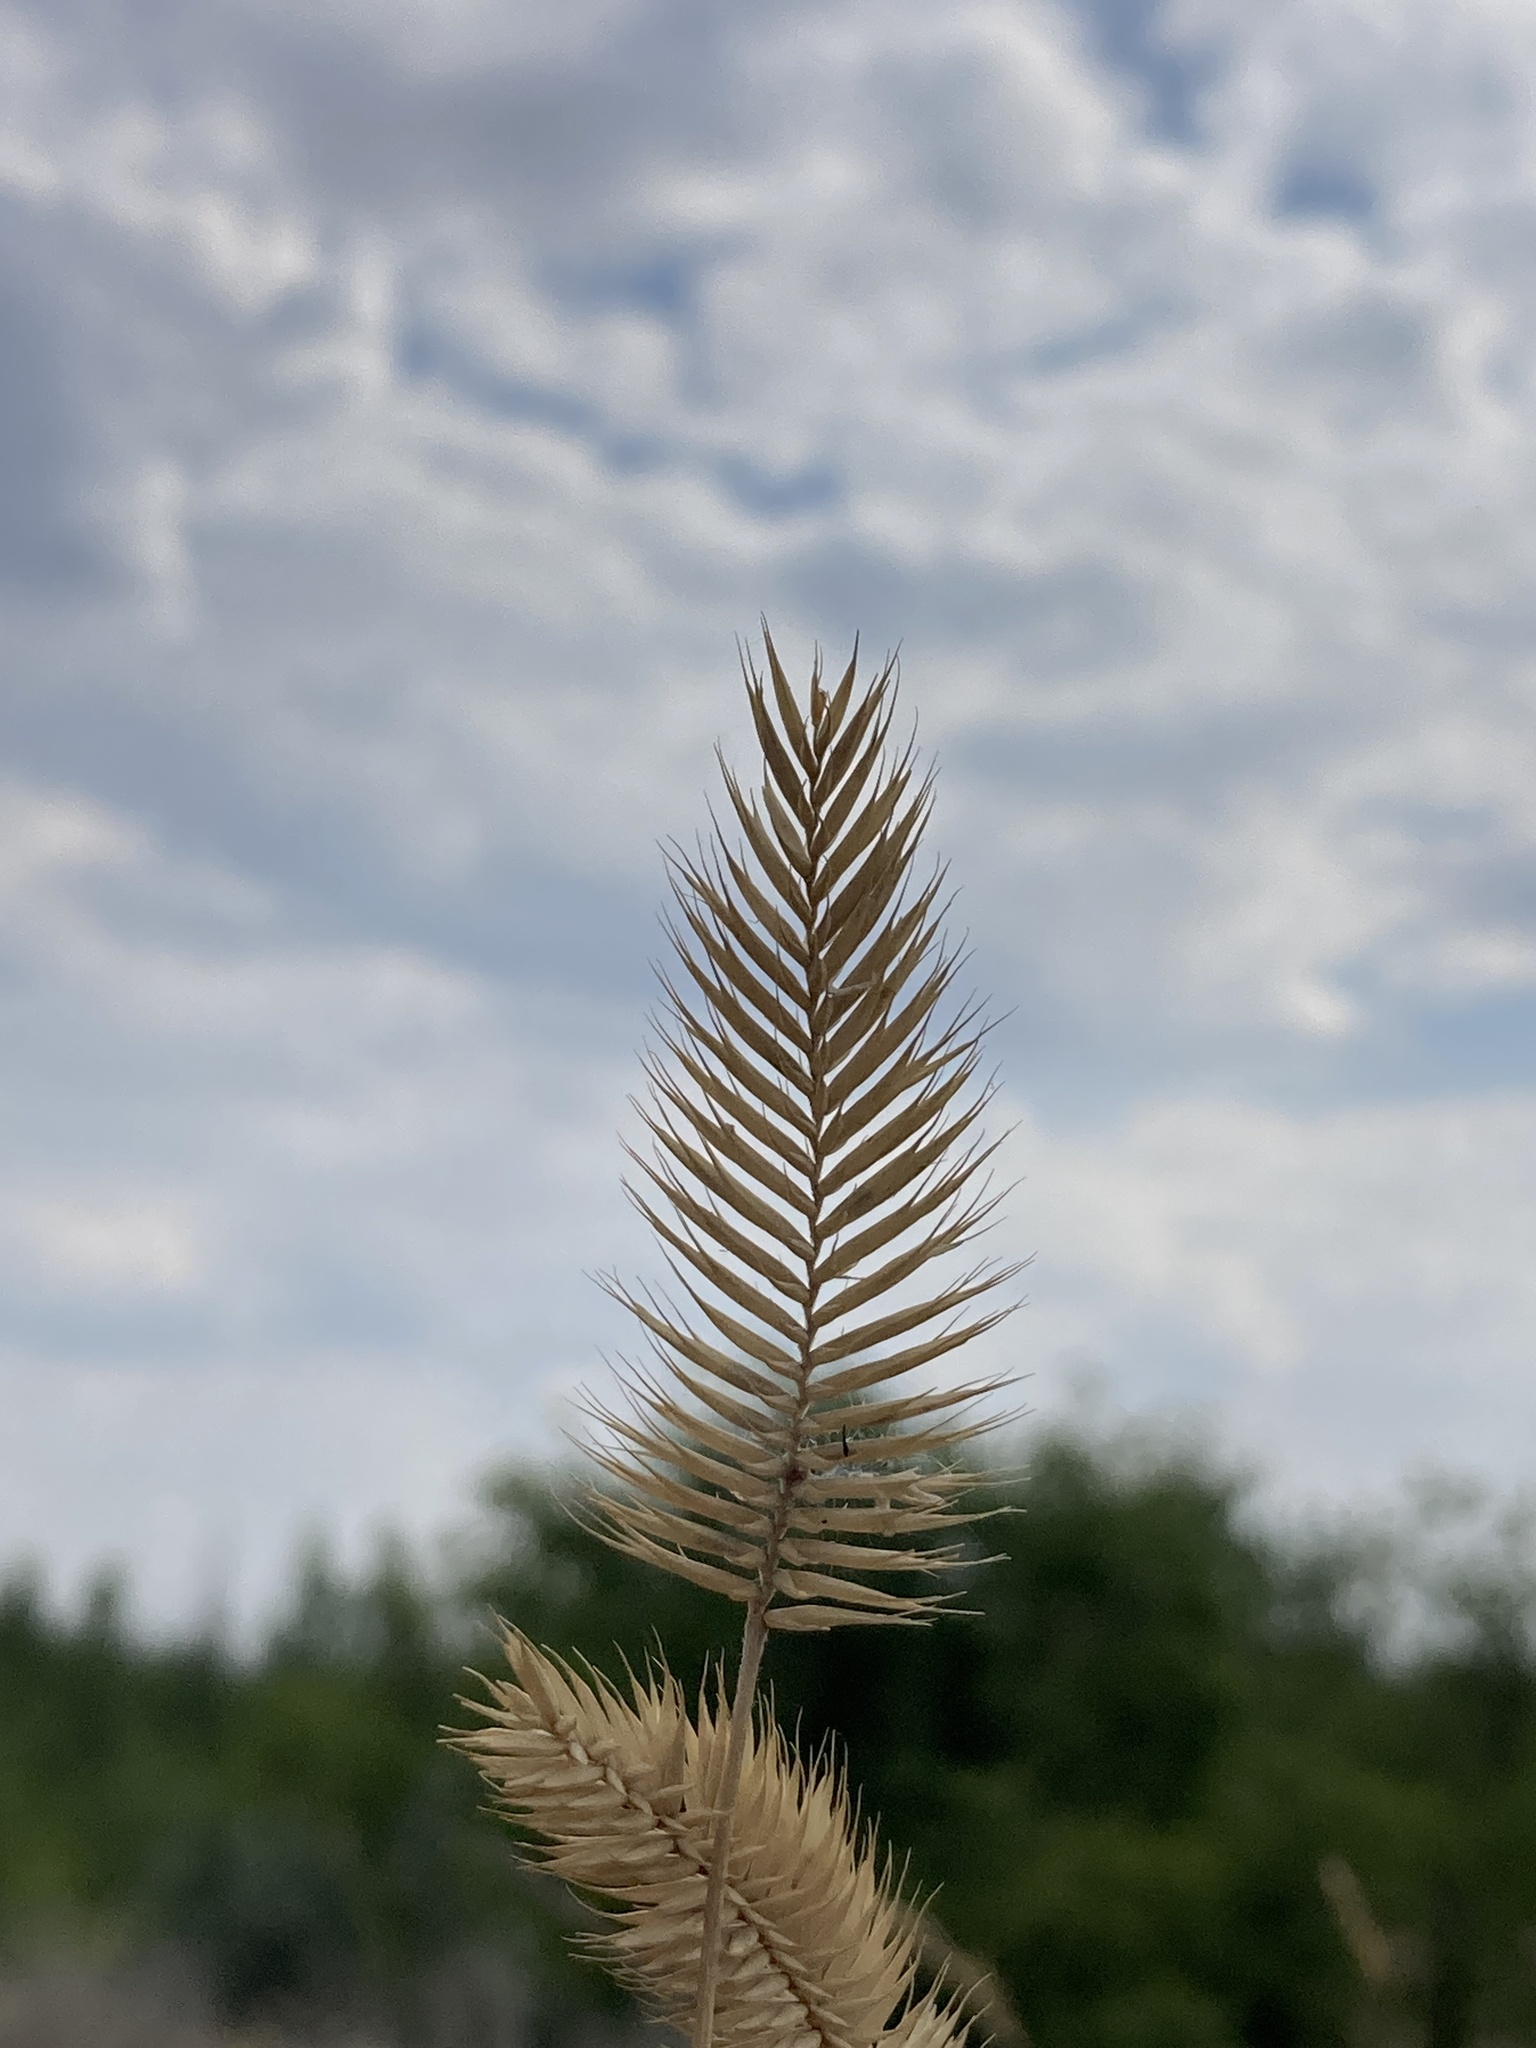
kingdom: Plantae
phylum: Tracheophyta
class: Liliopsida
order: Poales
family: Poaceae
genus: Agropyron
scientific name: Agropyron cristatum
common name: Crested wheatgrass
